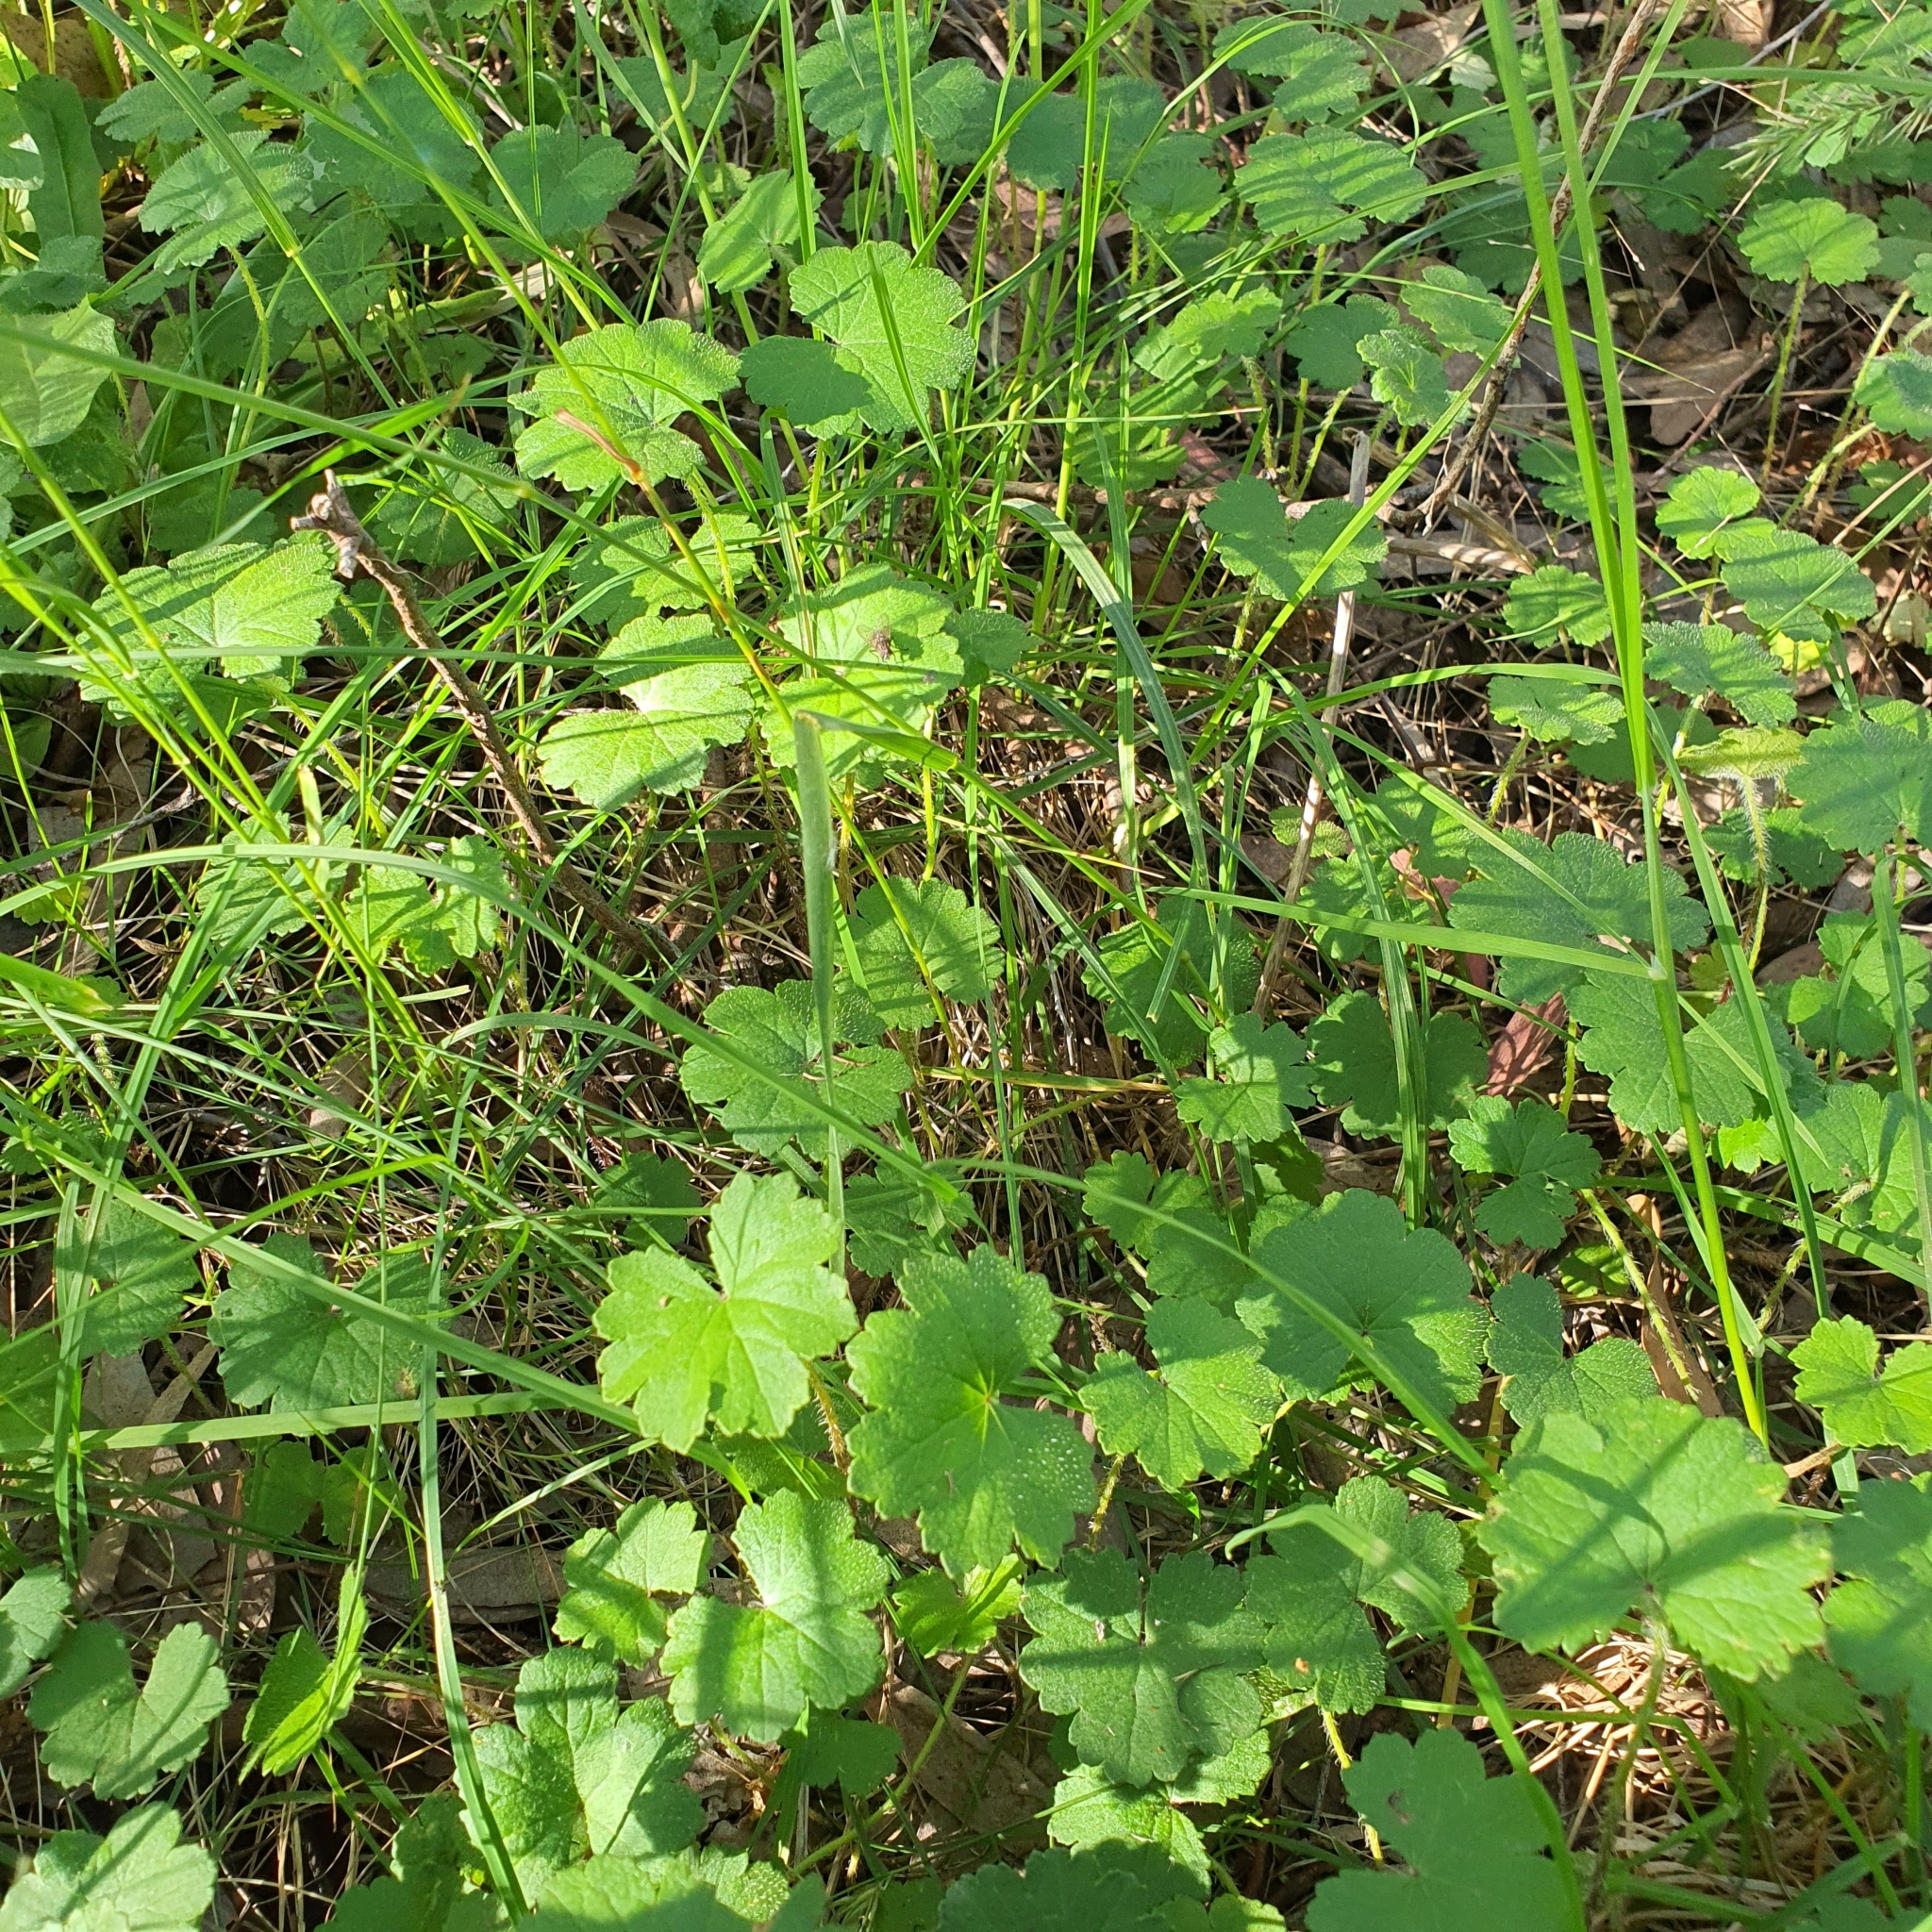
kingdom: Plantae
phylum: Tracheophyta
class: Magnoliopsida
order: Apiales
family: Araliaceae
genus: Hydrocotyle
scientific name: Hydrocotyle laxiflora
